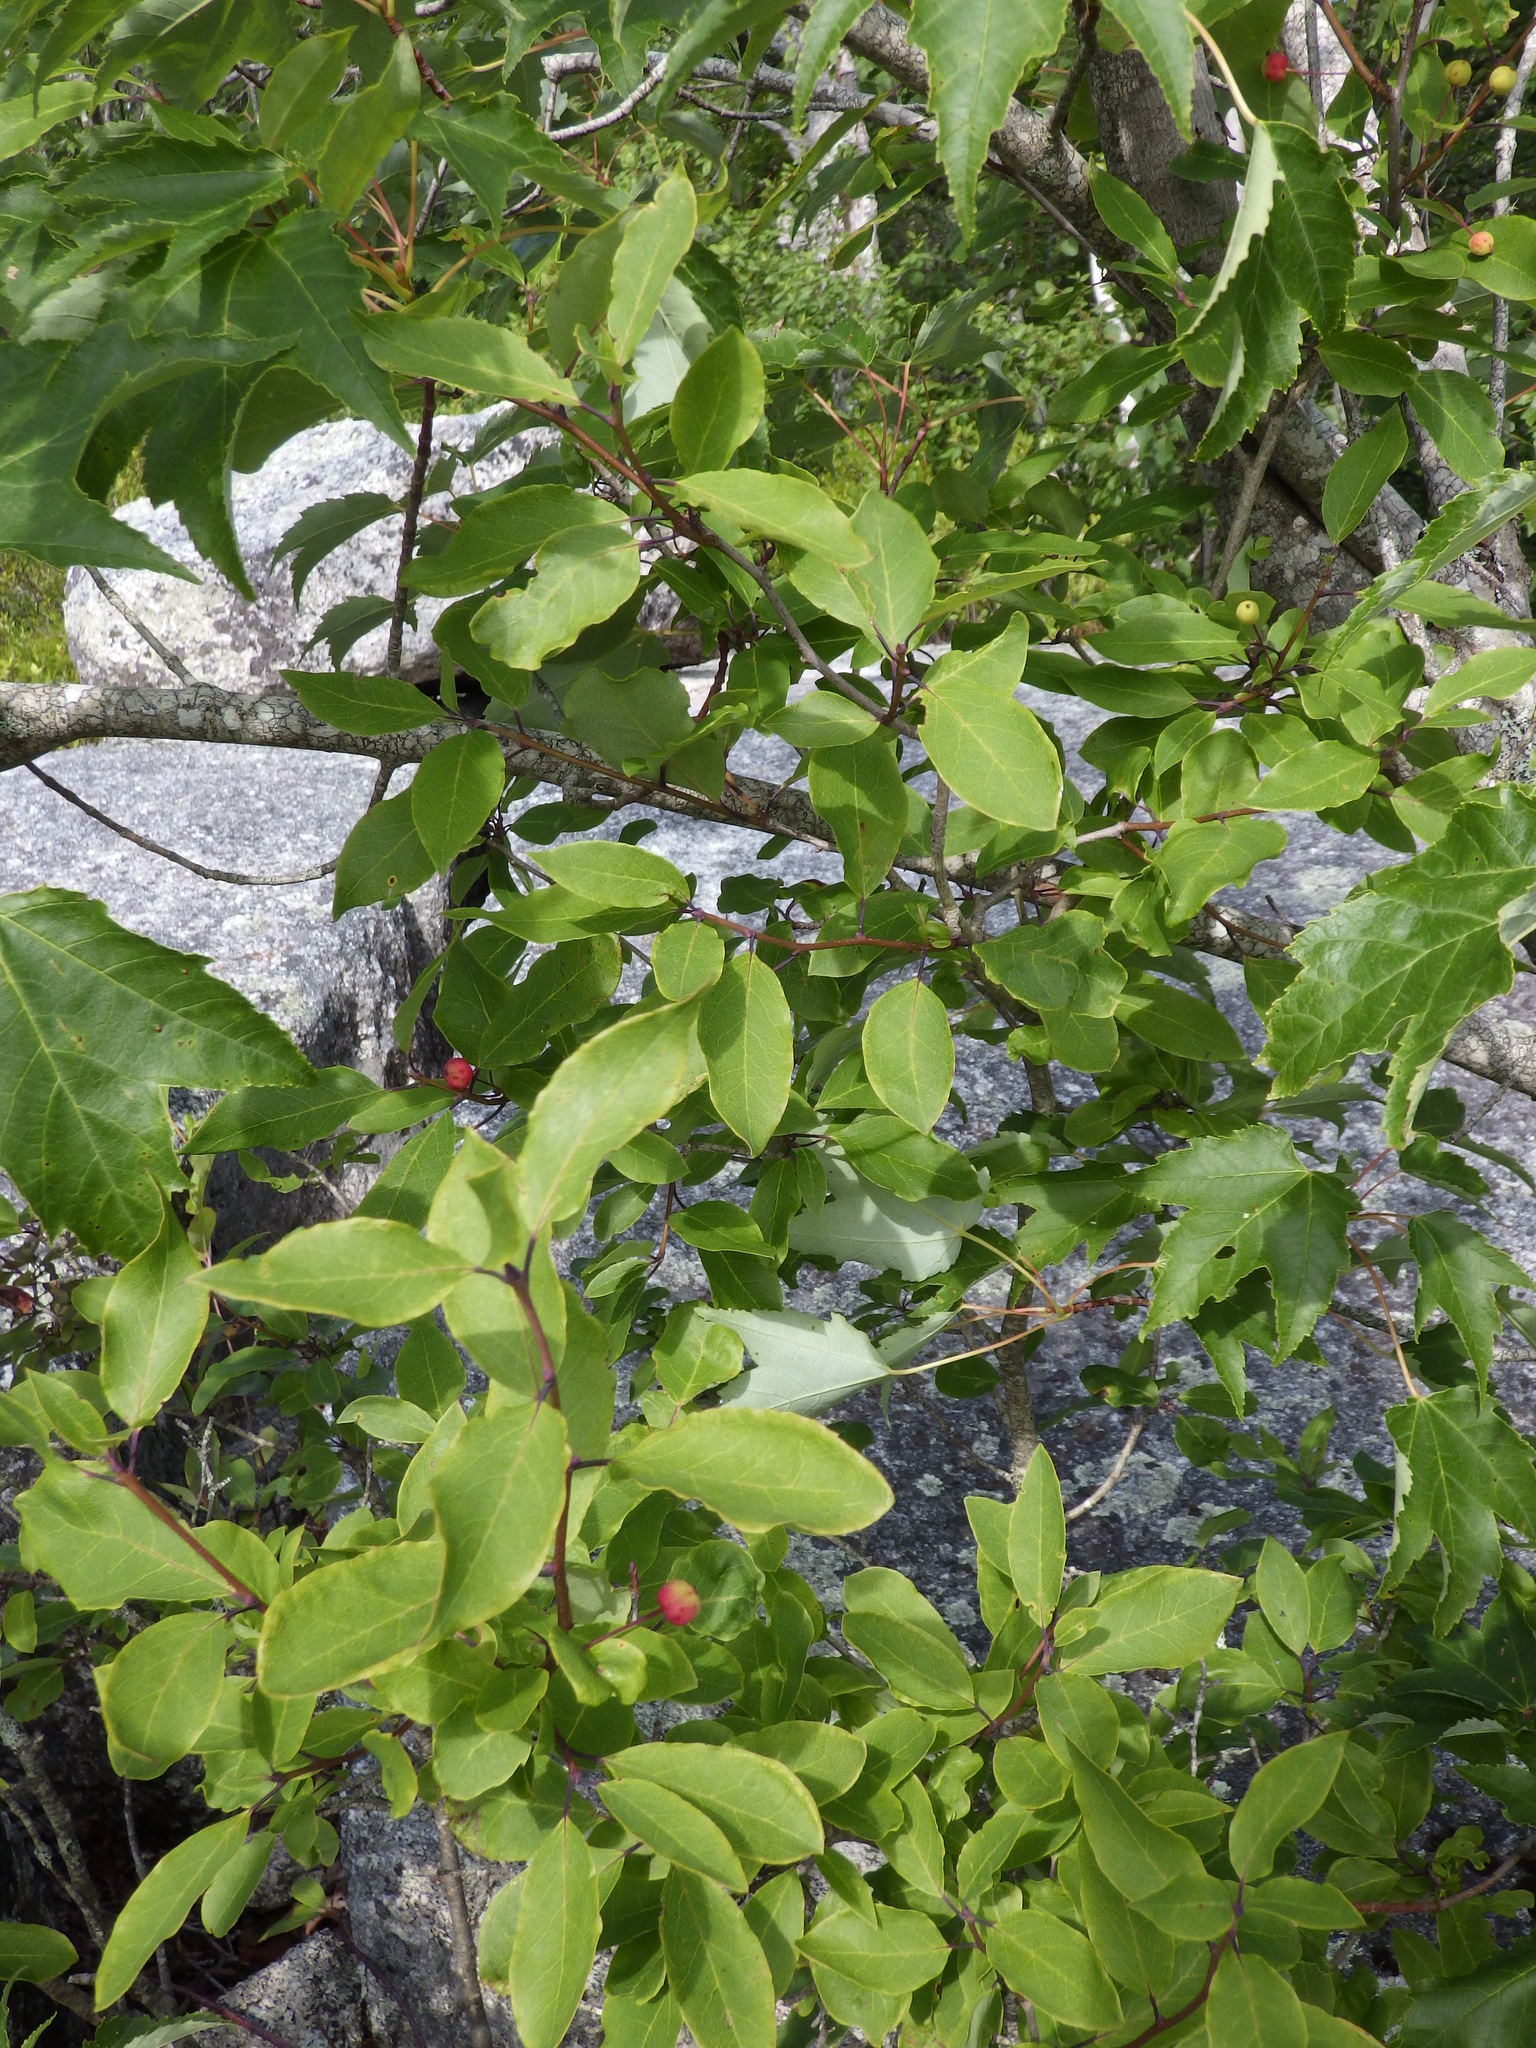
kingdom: Plantae
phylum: Tracheophyta
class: Magnoliopsida
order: Aquifoliales
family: Aquifoliaceae
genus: Ilex
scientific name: Ilex mucronata
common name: Catberry
